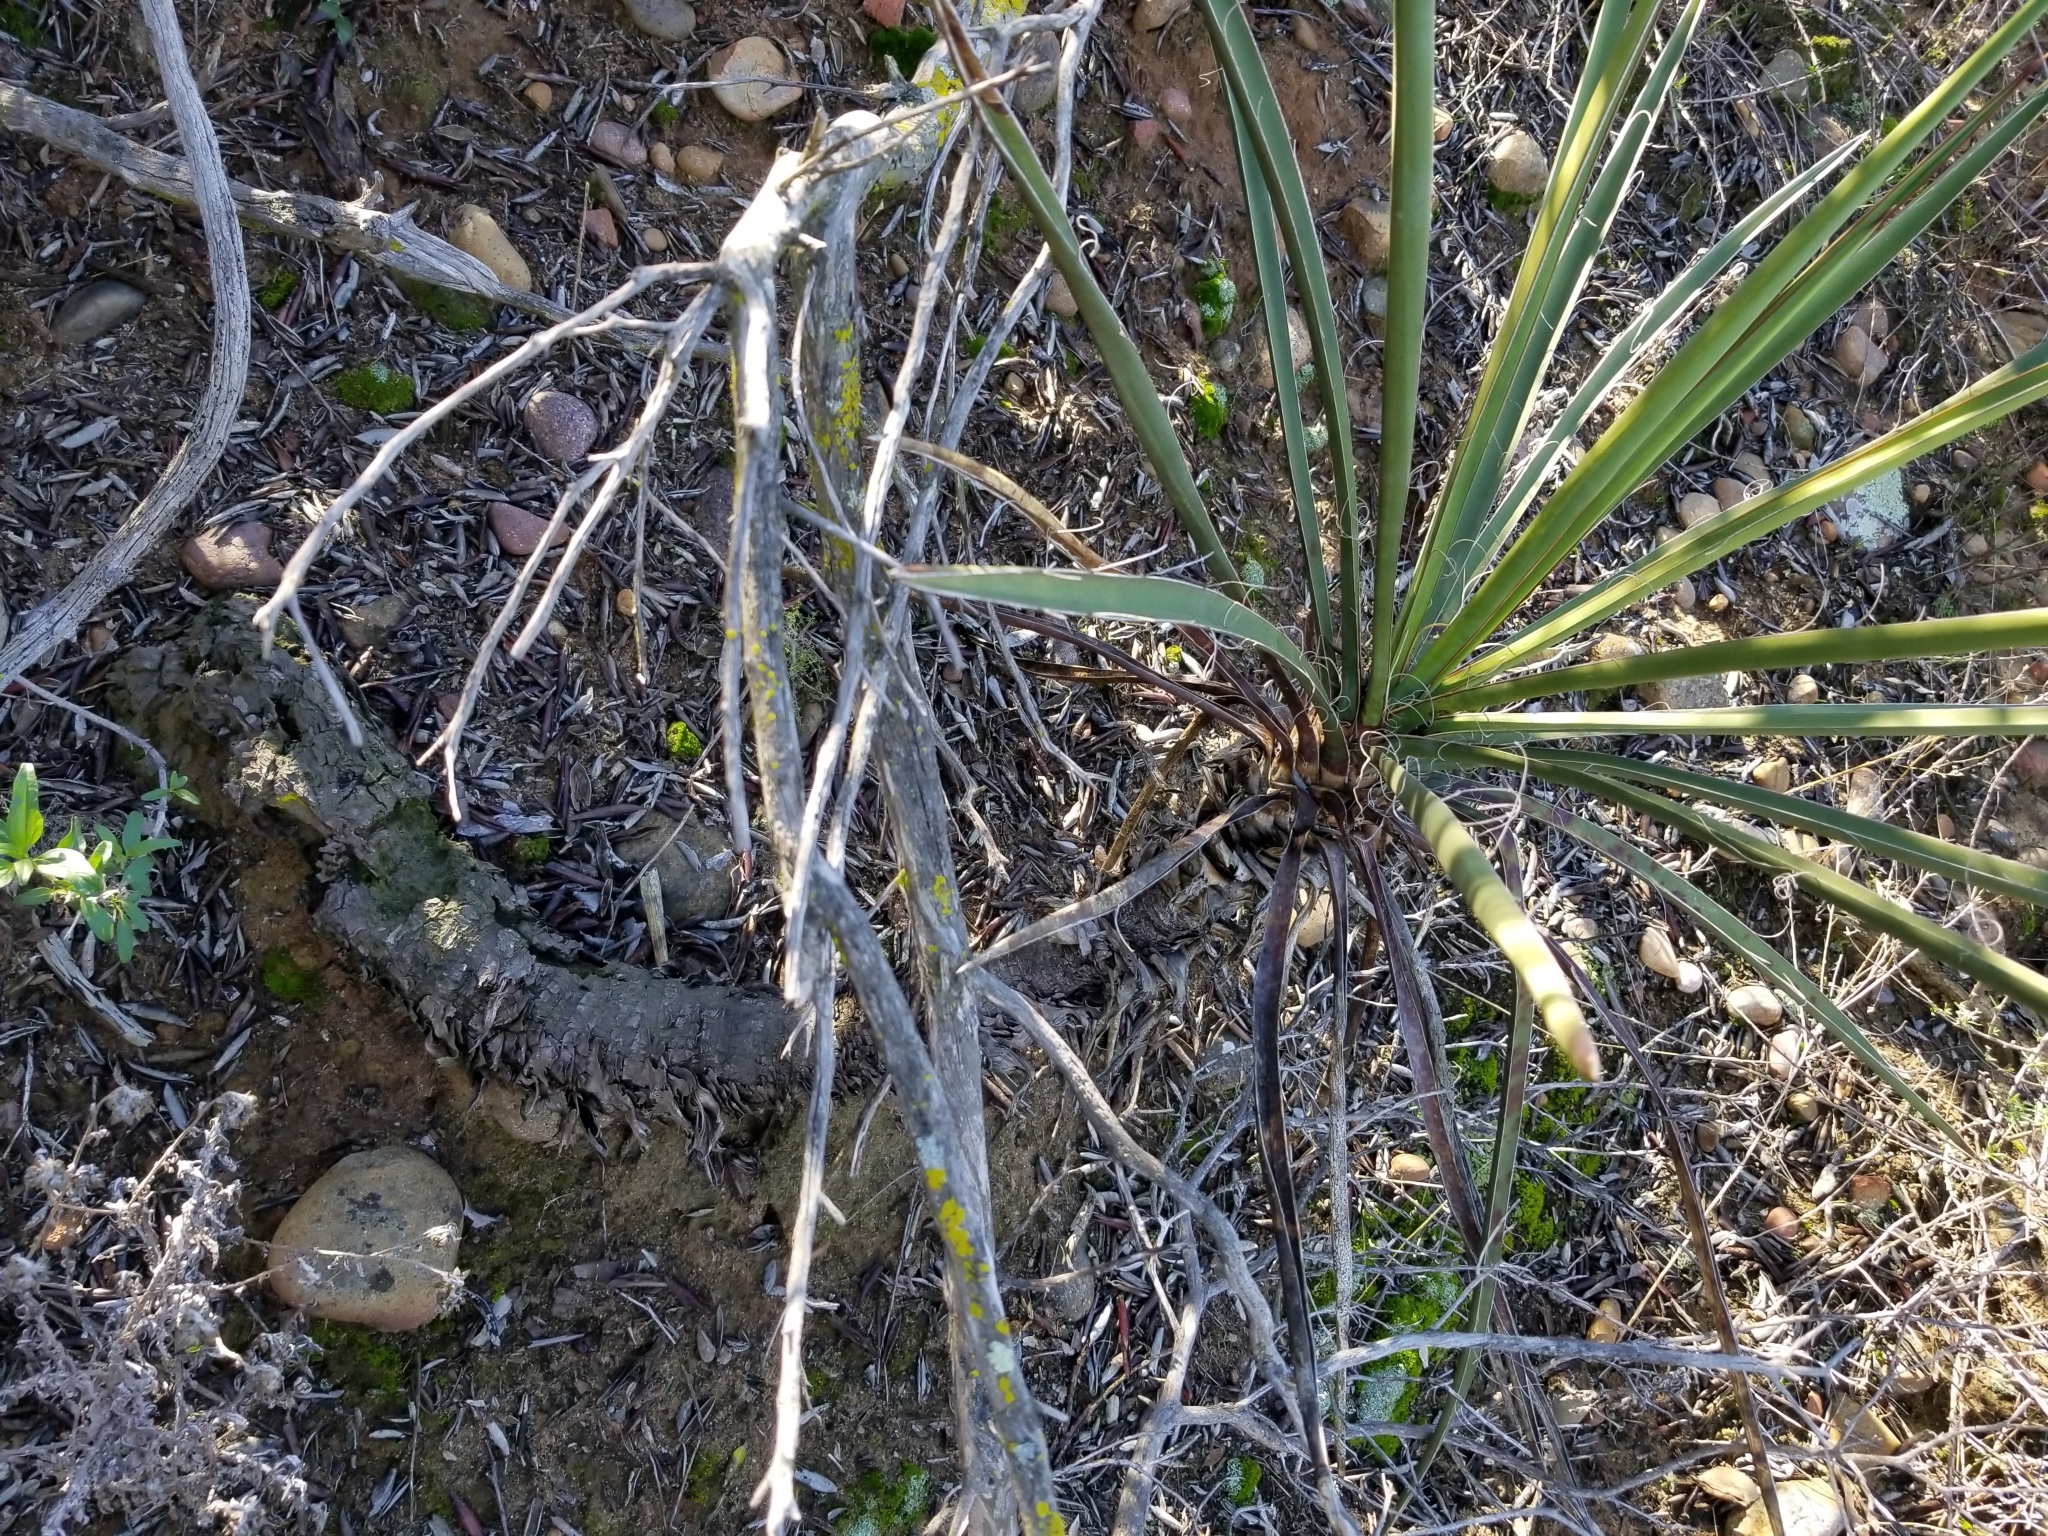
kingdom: Plantae
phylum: Tracheophyta
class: Liliopsida
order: Asparagales
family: Asparagaceae
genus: Yucca
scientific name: Yucca schidigera
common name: Mojave yucca
